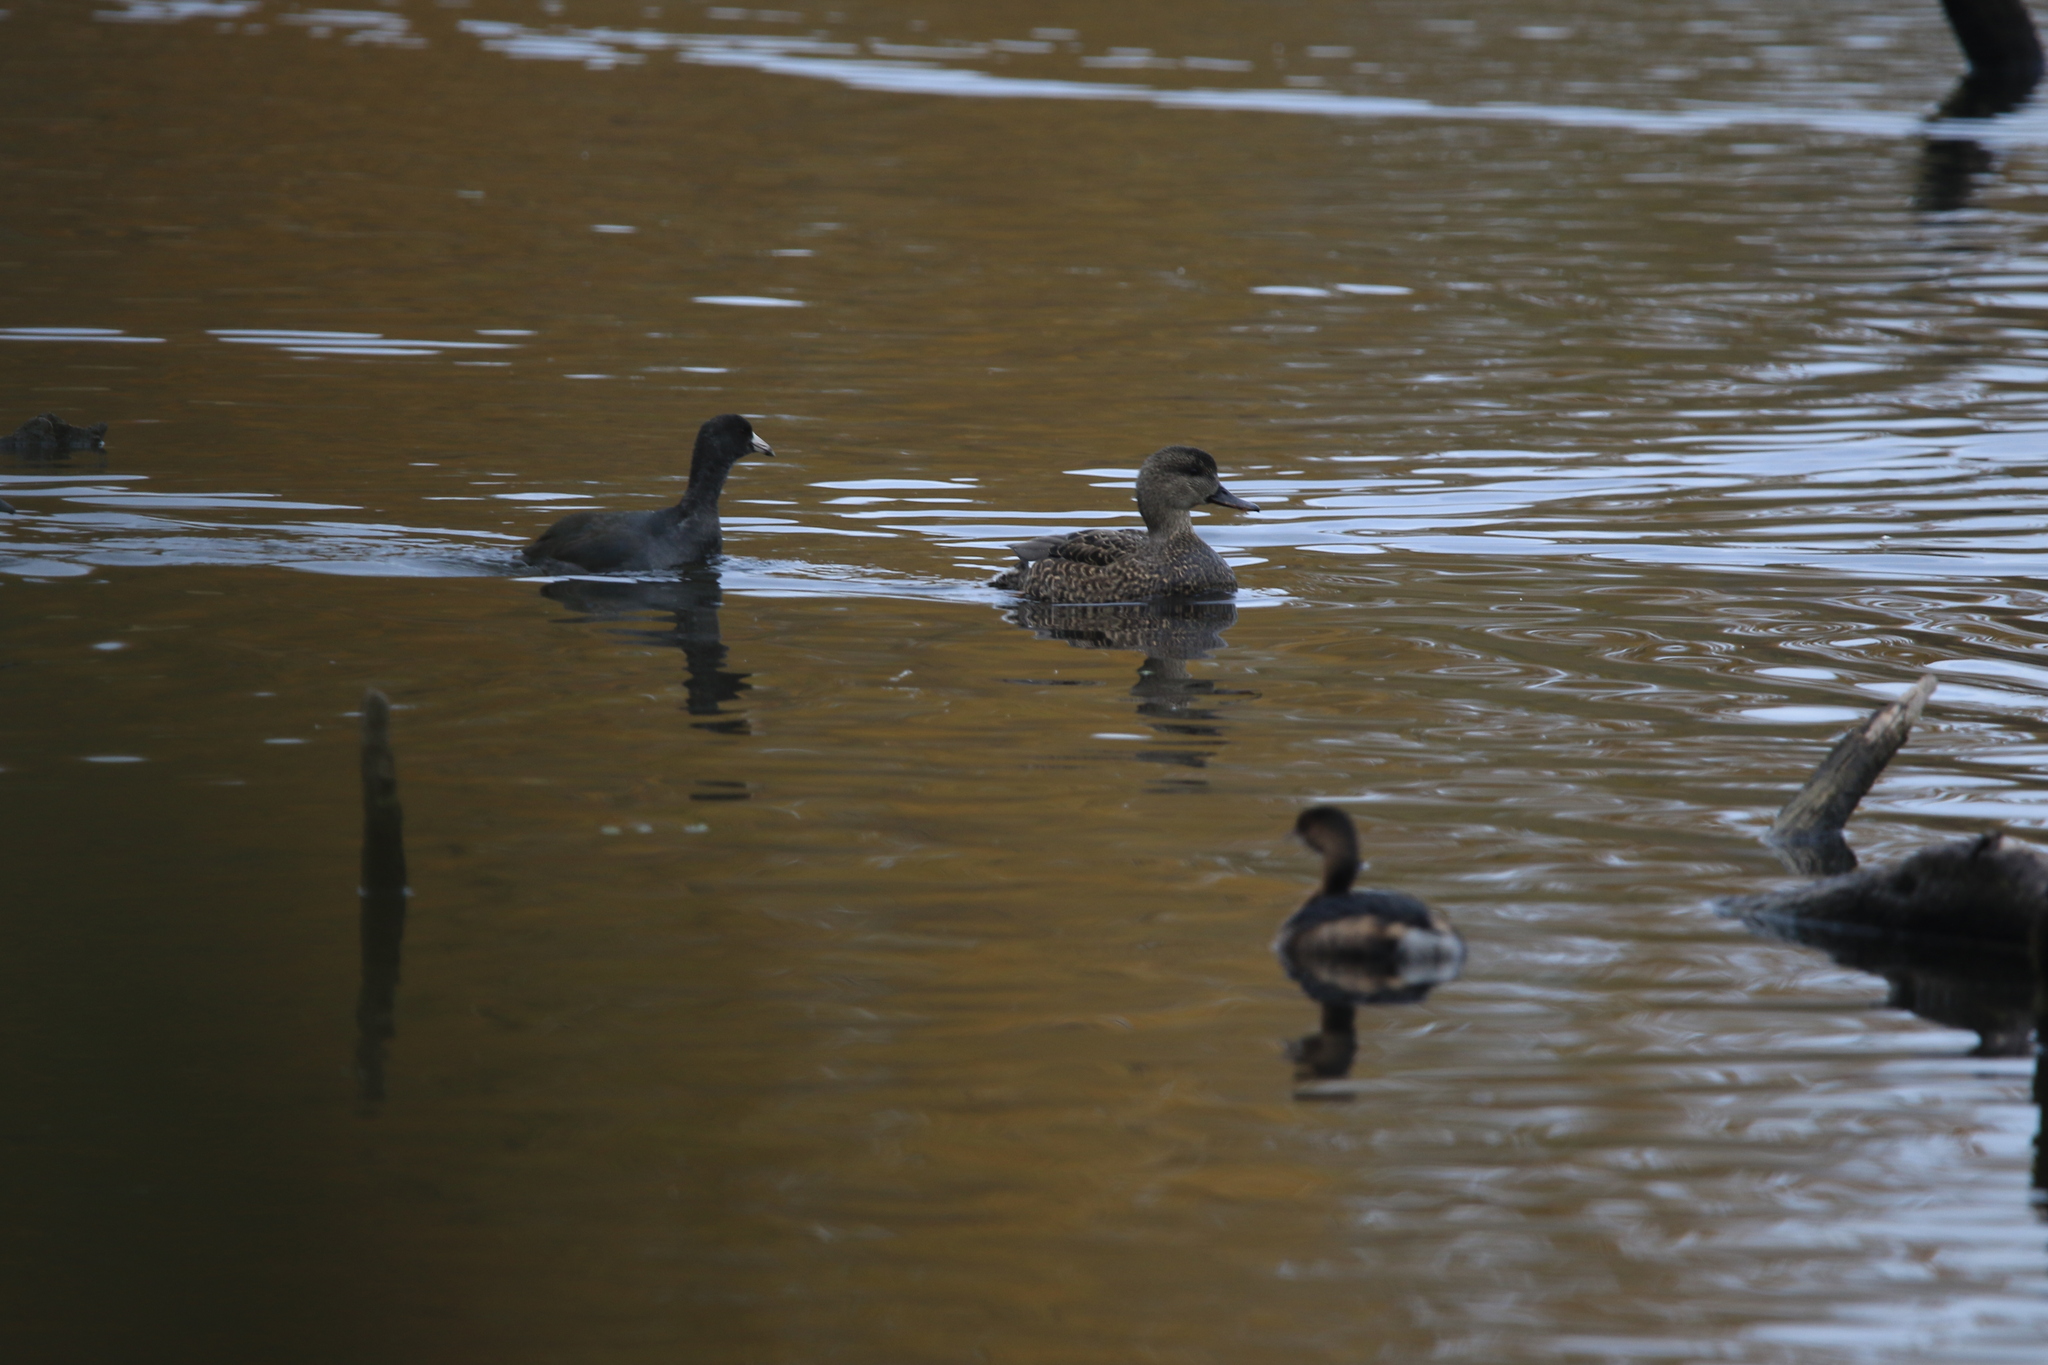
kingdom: Animalia
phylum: Chordata
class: Aves
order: Anseriformes
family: Anatidae
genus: Mareca
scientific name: Mareca strepera
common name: Gadwall
